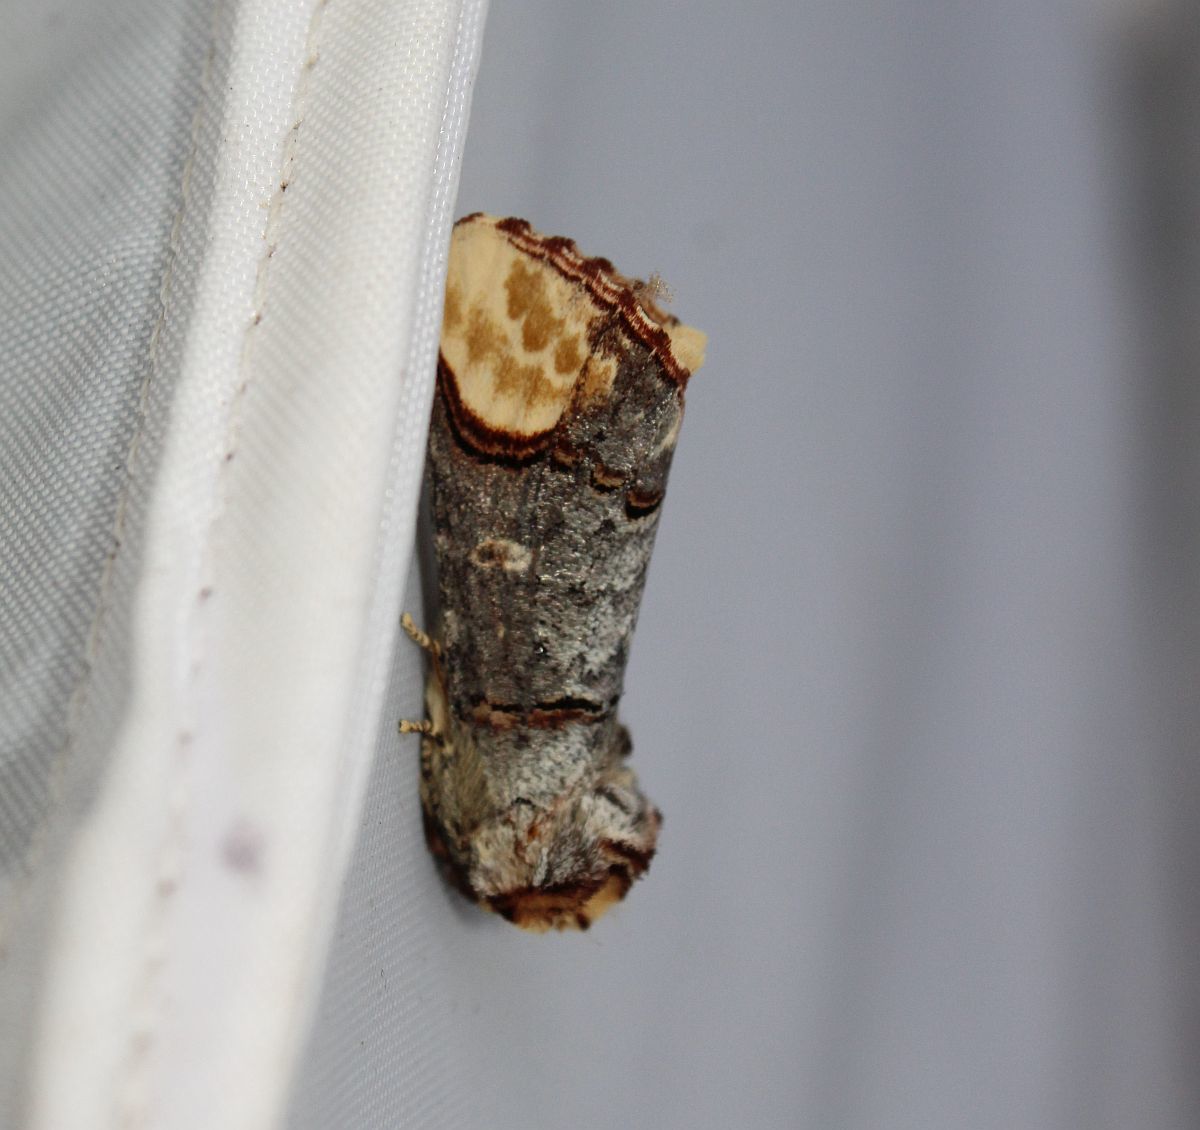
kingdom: Animalia
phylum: Arthropoda
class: Insecta
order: Lepidoptera
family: Notodontidae
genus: Phalera
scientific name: Phalera bucephala
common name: Buff-tip
